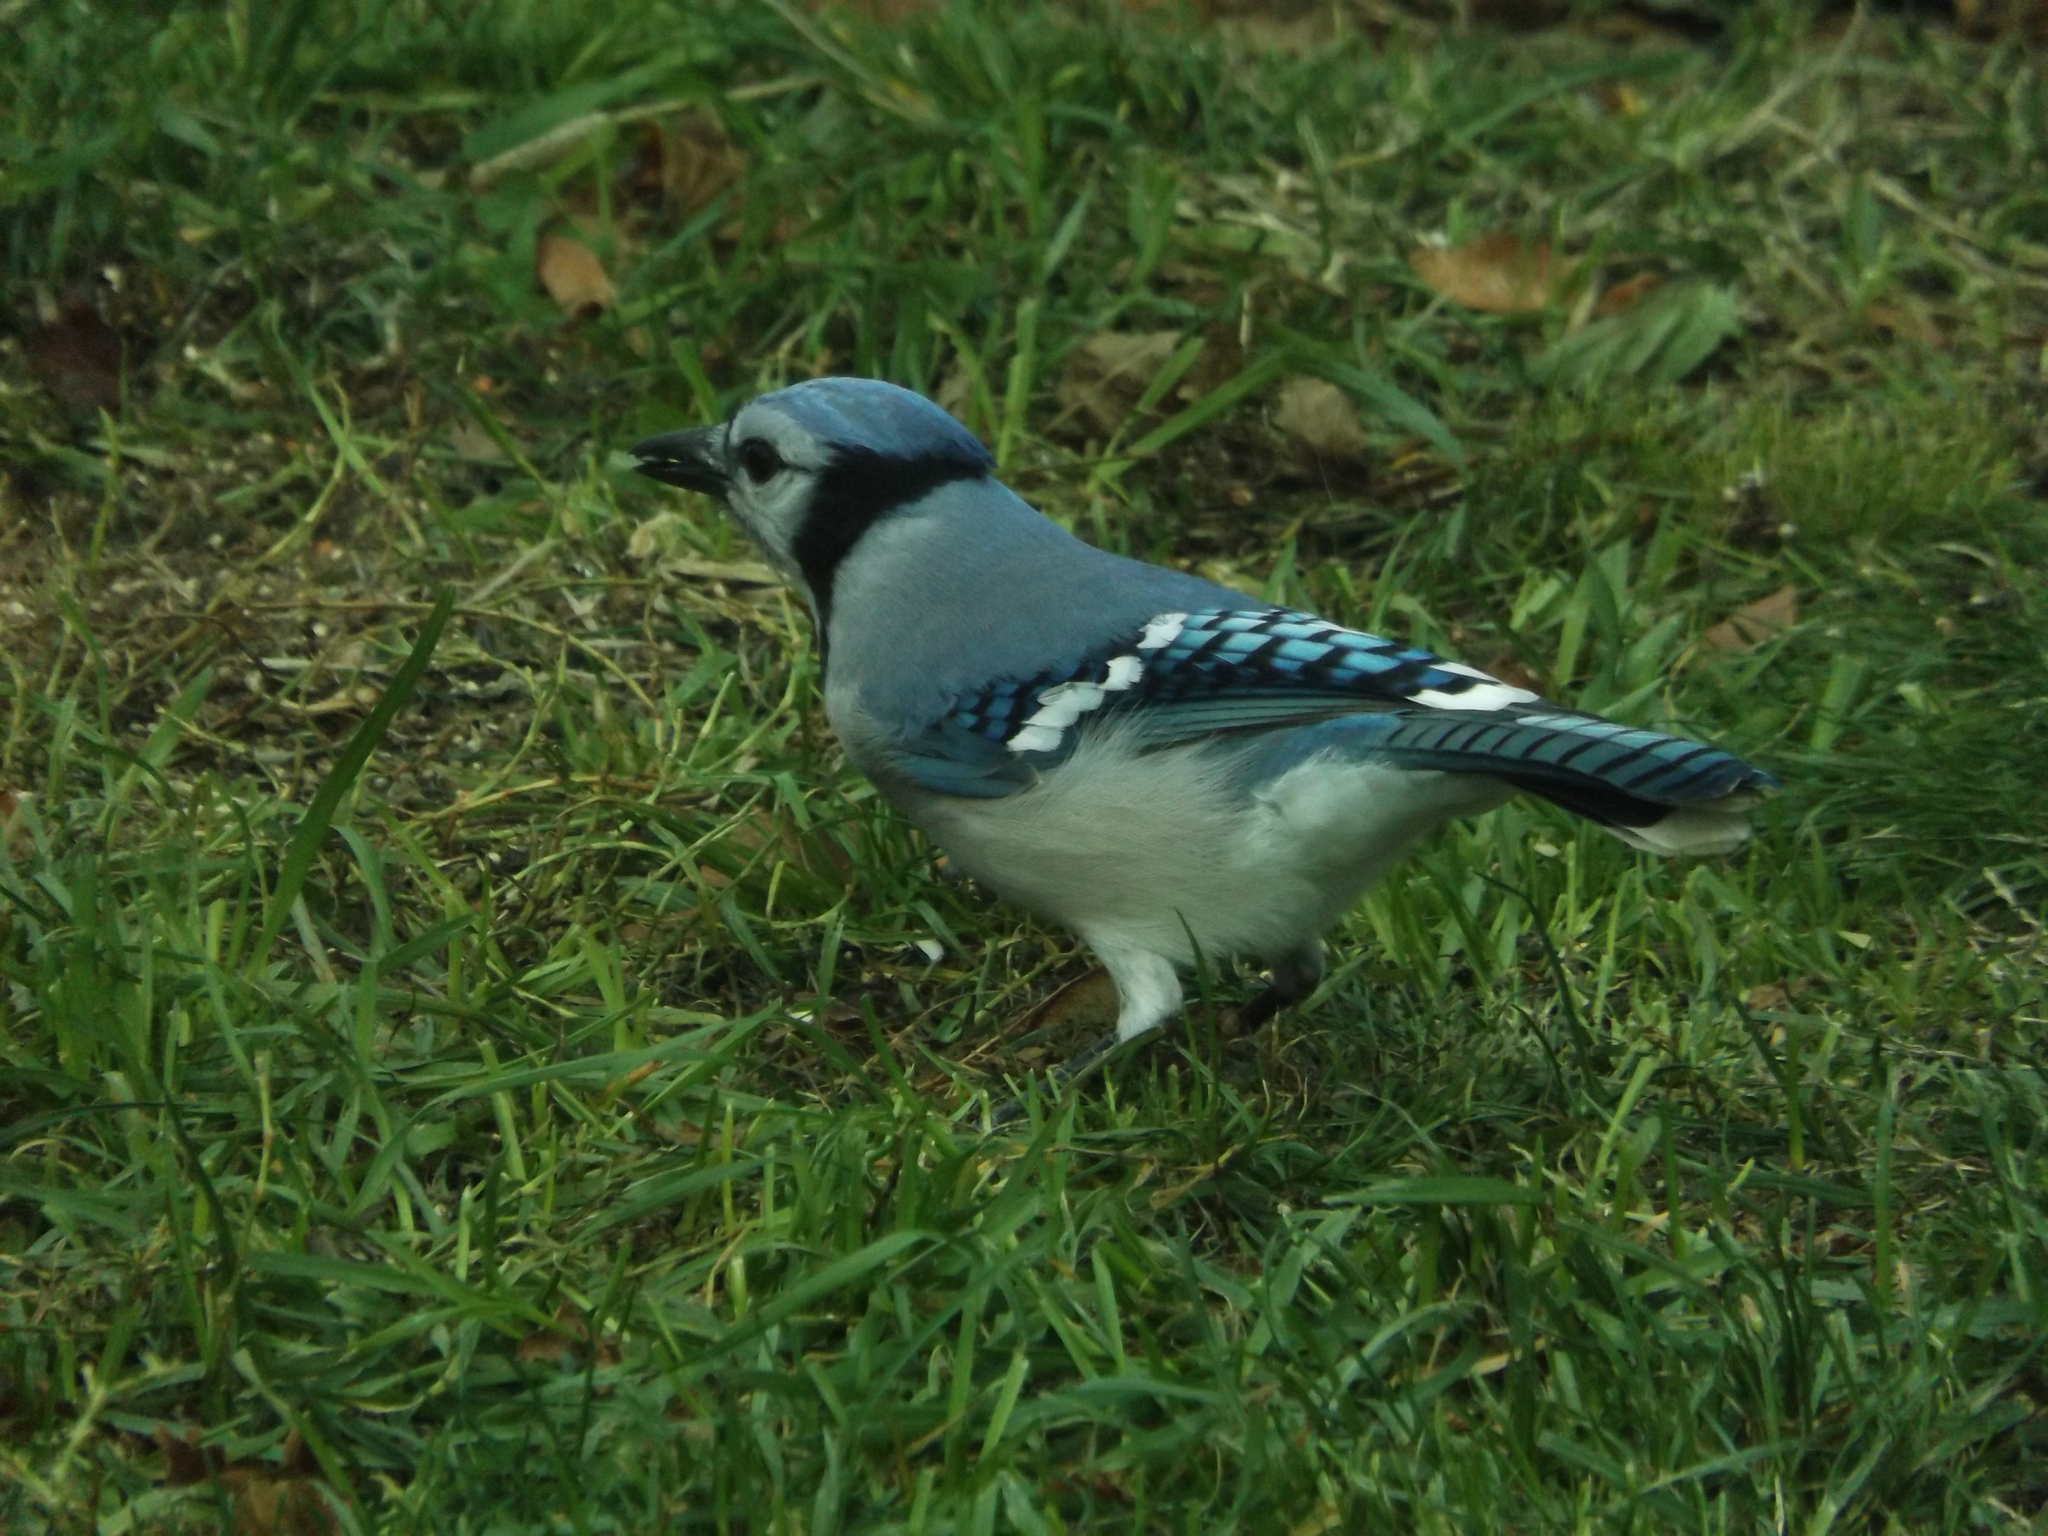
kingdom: Animalia
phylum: Chordata
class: Aves
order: Passeriformes
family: Corvidae
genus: Cyanocitta
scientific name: Cyanocitta cristata
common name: Blue jay
